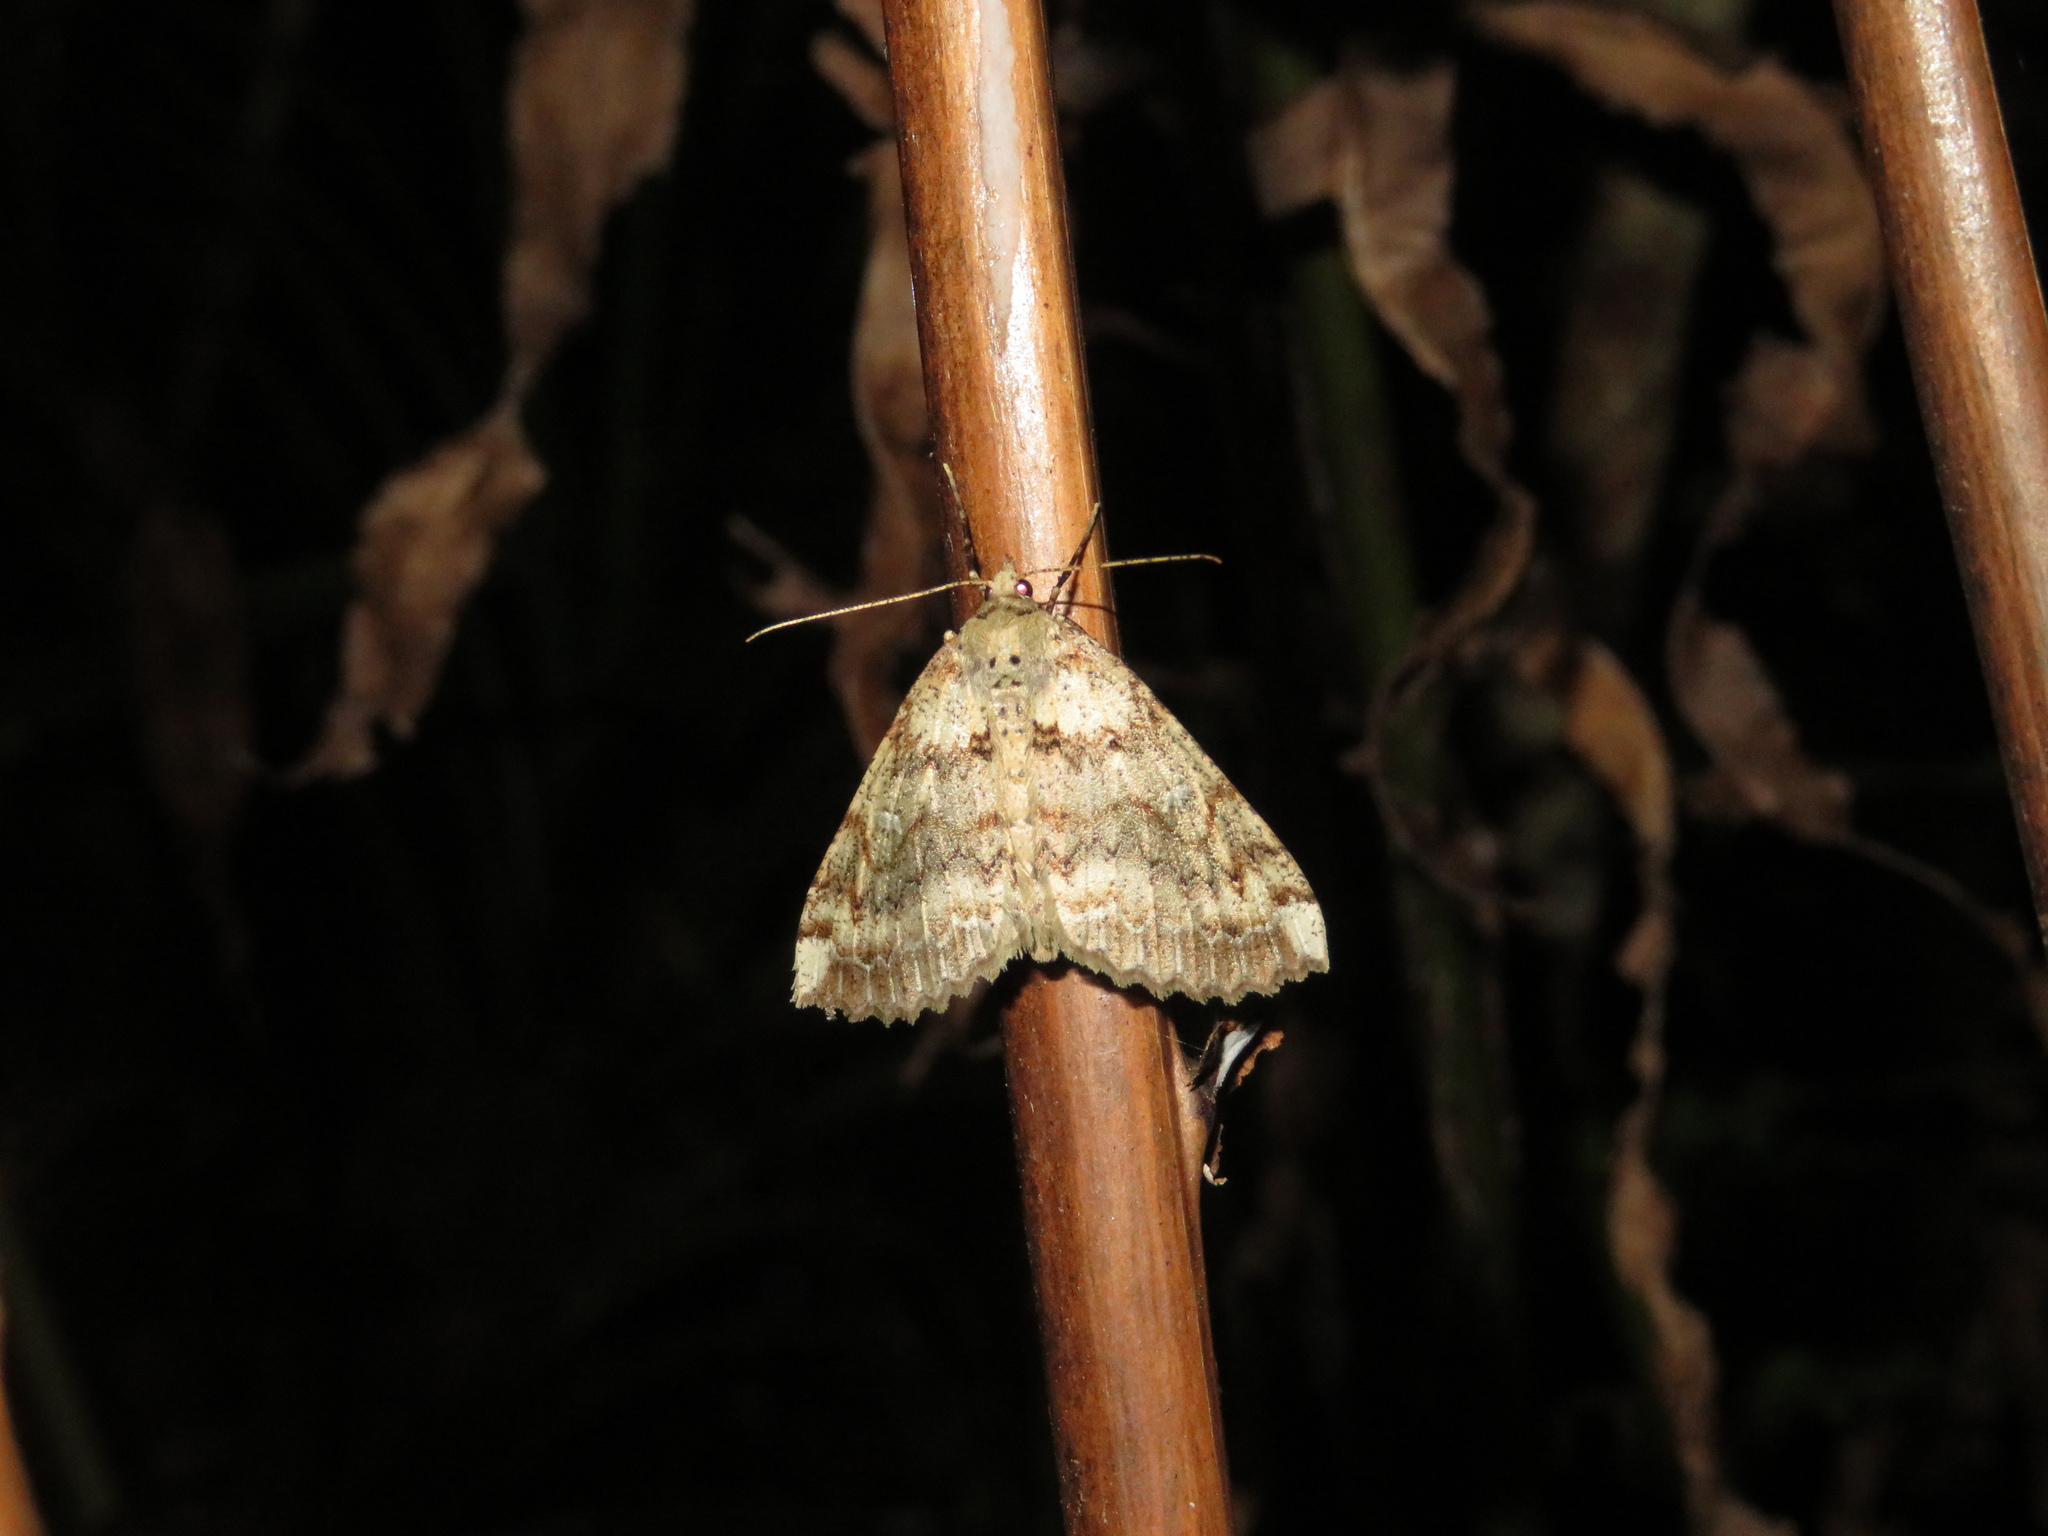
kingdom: Animalia
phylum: Arthropoda
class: Insecta
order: Lepidoptera
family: Geometridae
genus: Cleora
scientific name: Cleora scriptaria
